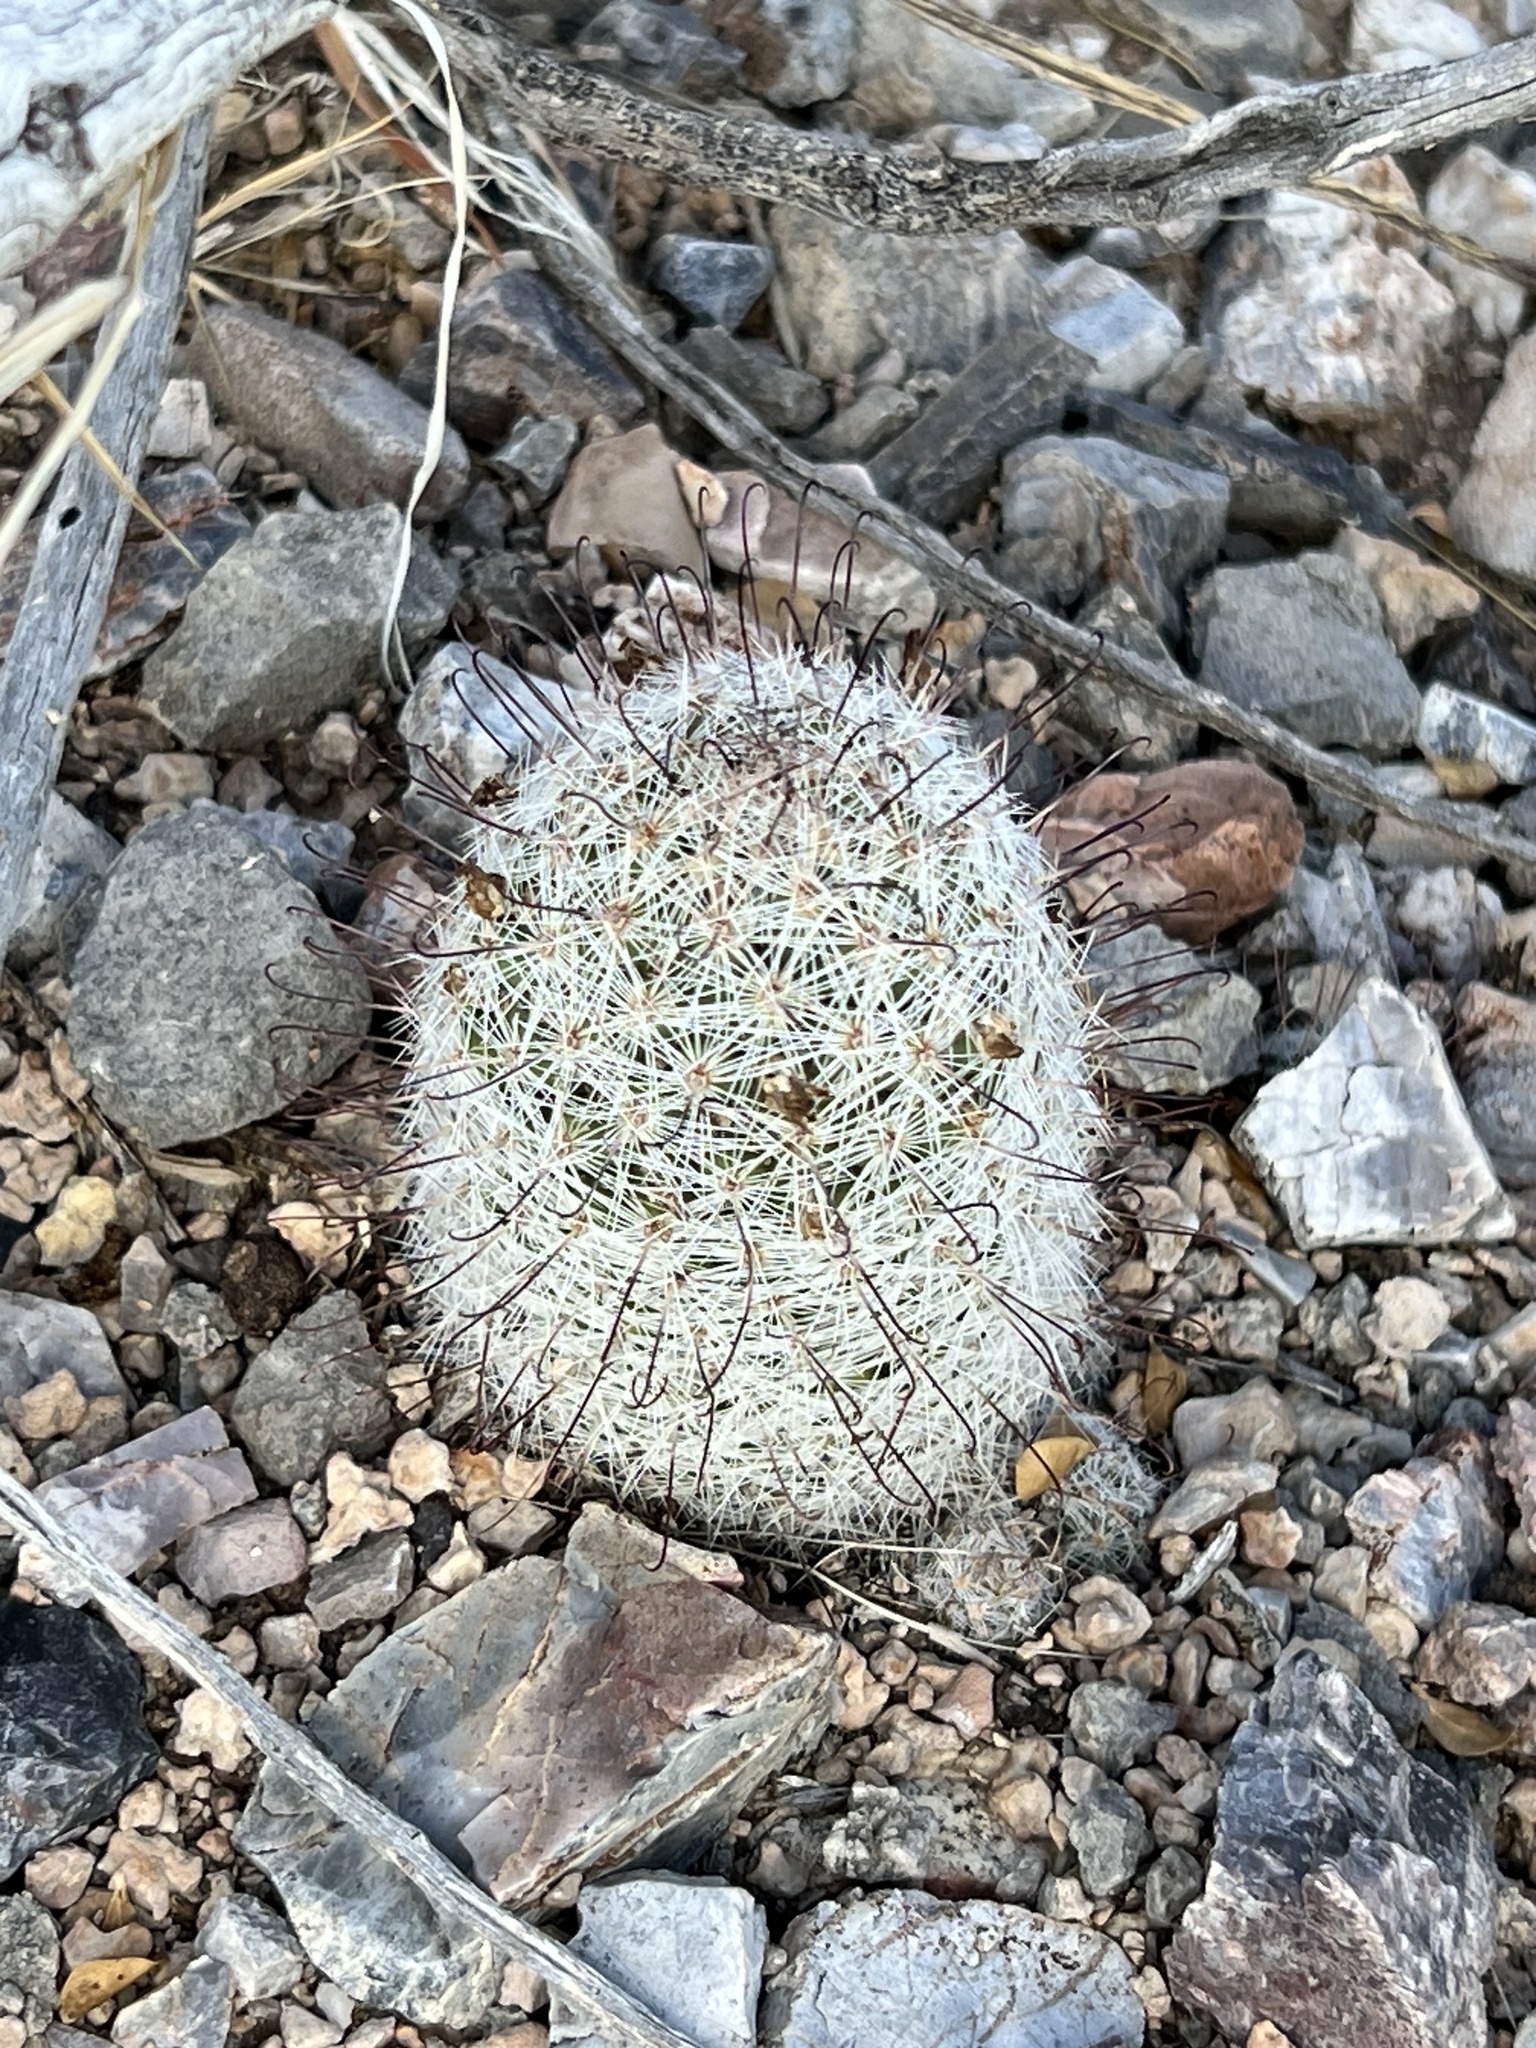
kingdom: Plantae
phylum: Tracheophyta
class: Magnoliopsida
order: Caryophyllales
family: Cactaceae
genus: Cochemiea
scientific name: Cochemiea grahamii
